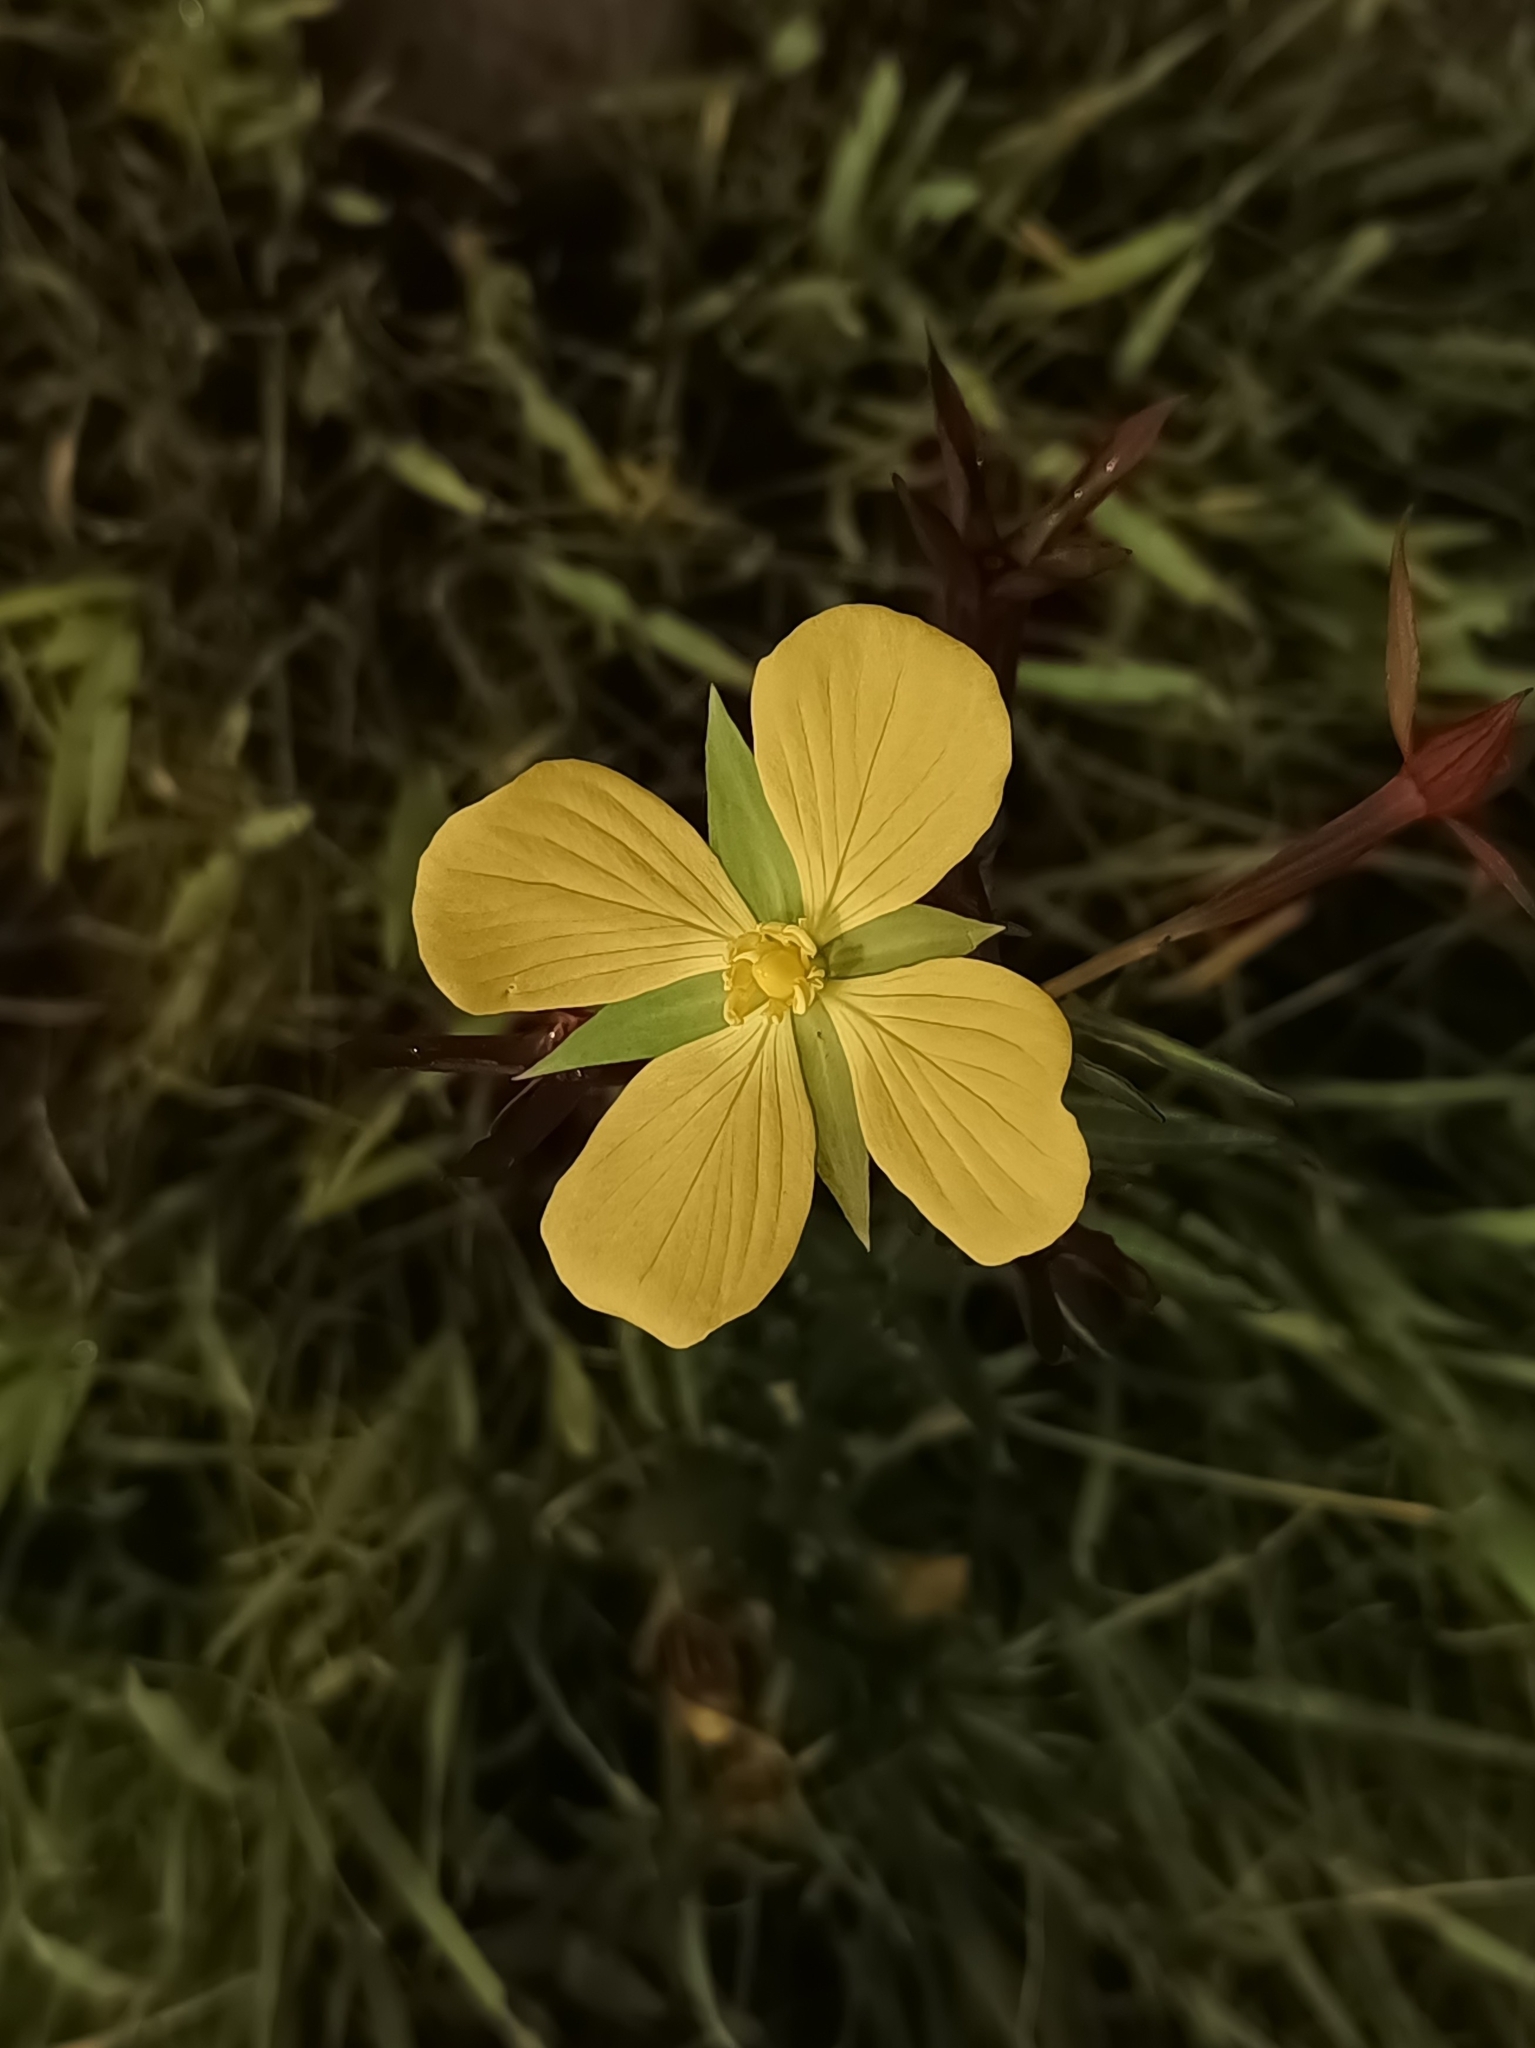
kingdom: Plantae
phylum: Tracheophyta
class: Magnoliopsida
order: Myrtales
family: Onagraceae
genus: Ludwigia
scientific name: Ludwigia octovalvis
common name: Water-primrose
